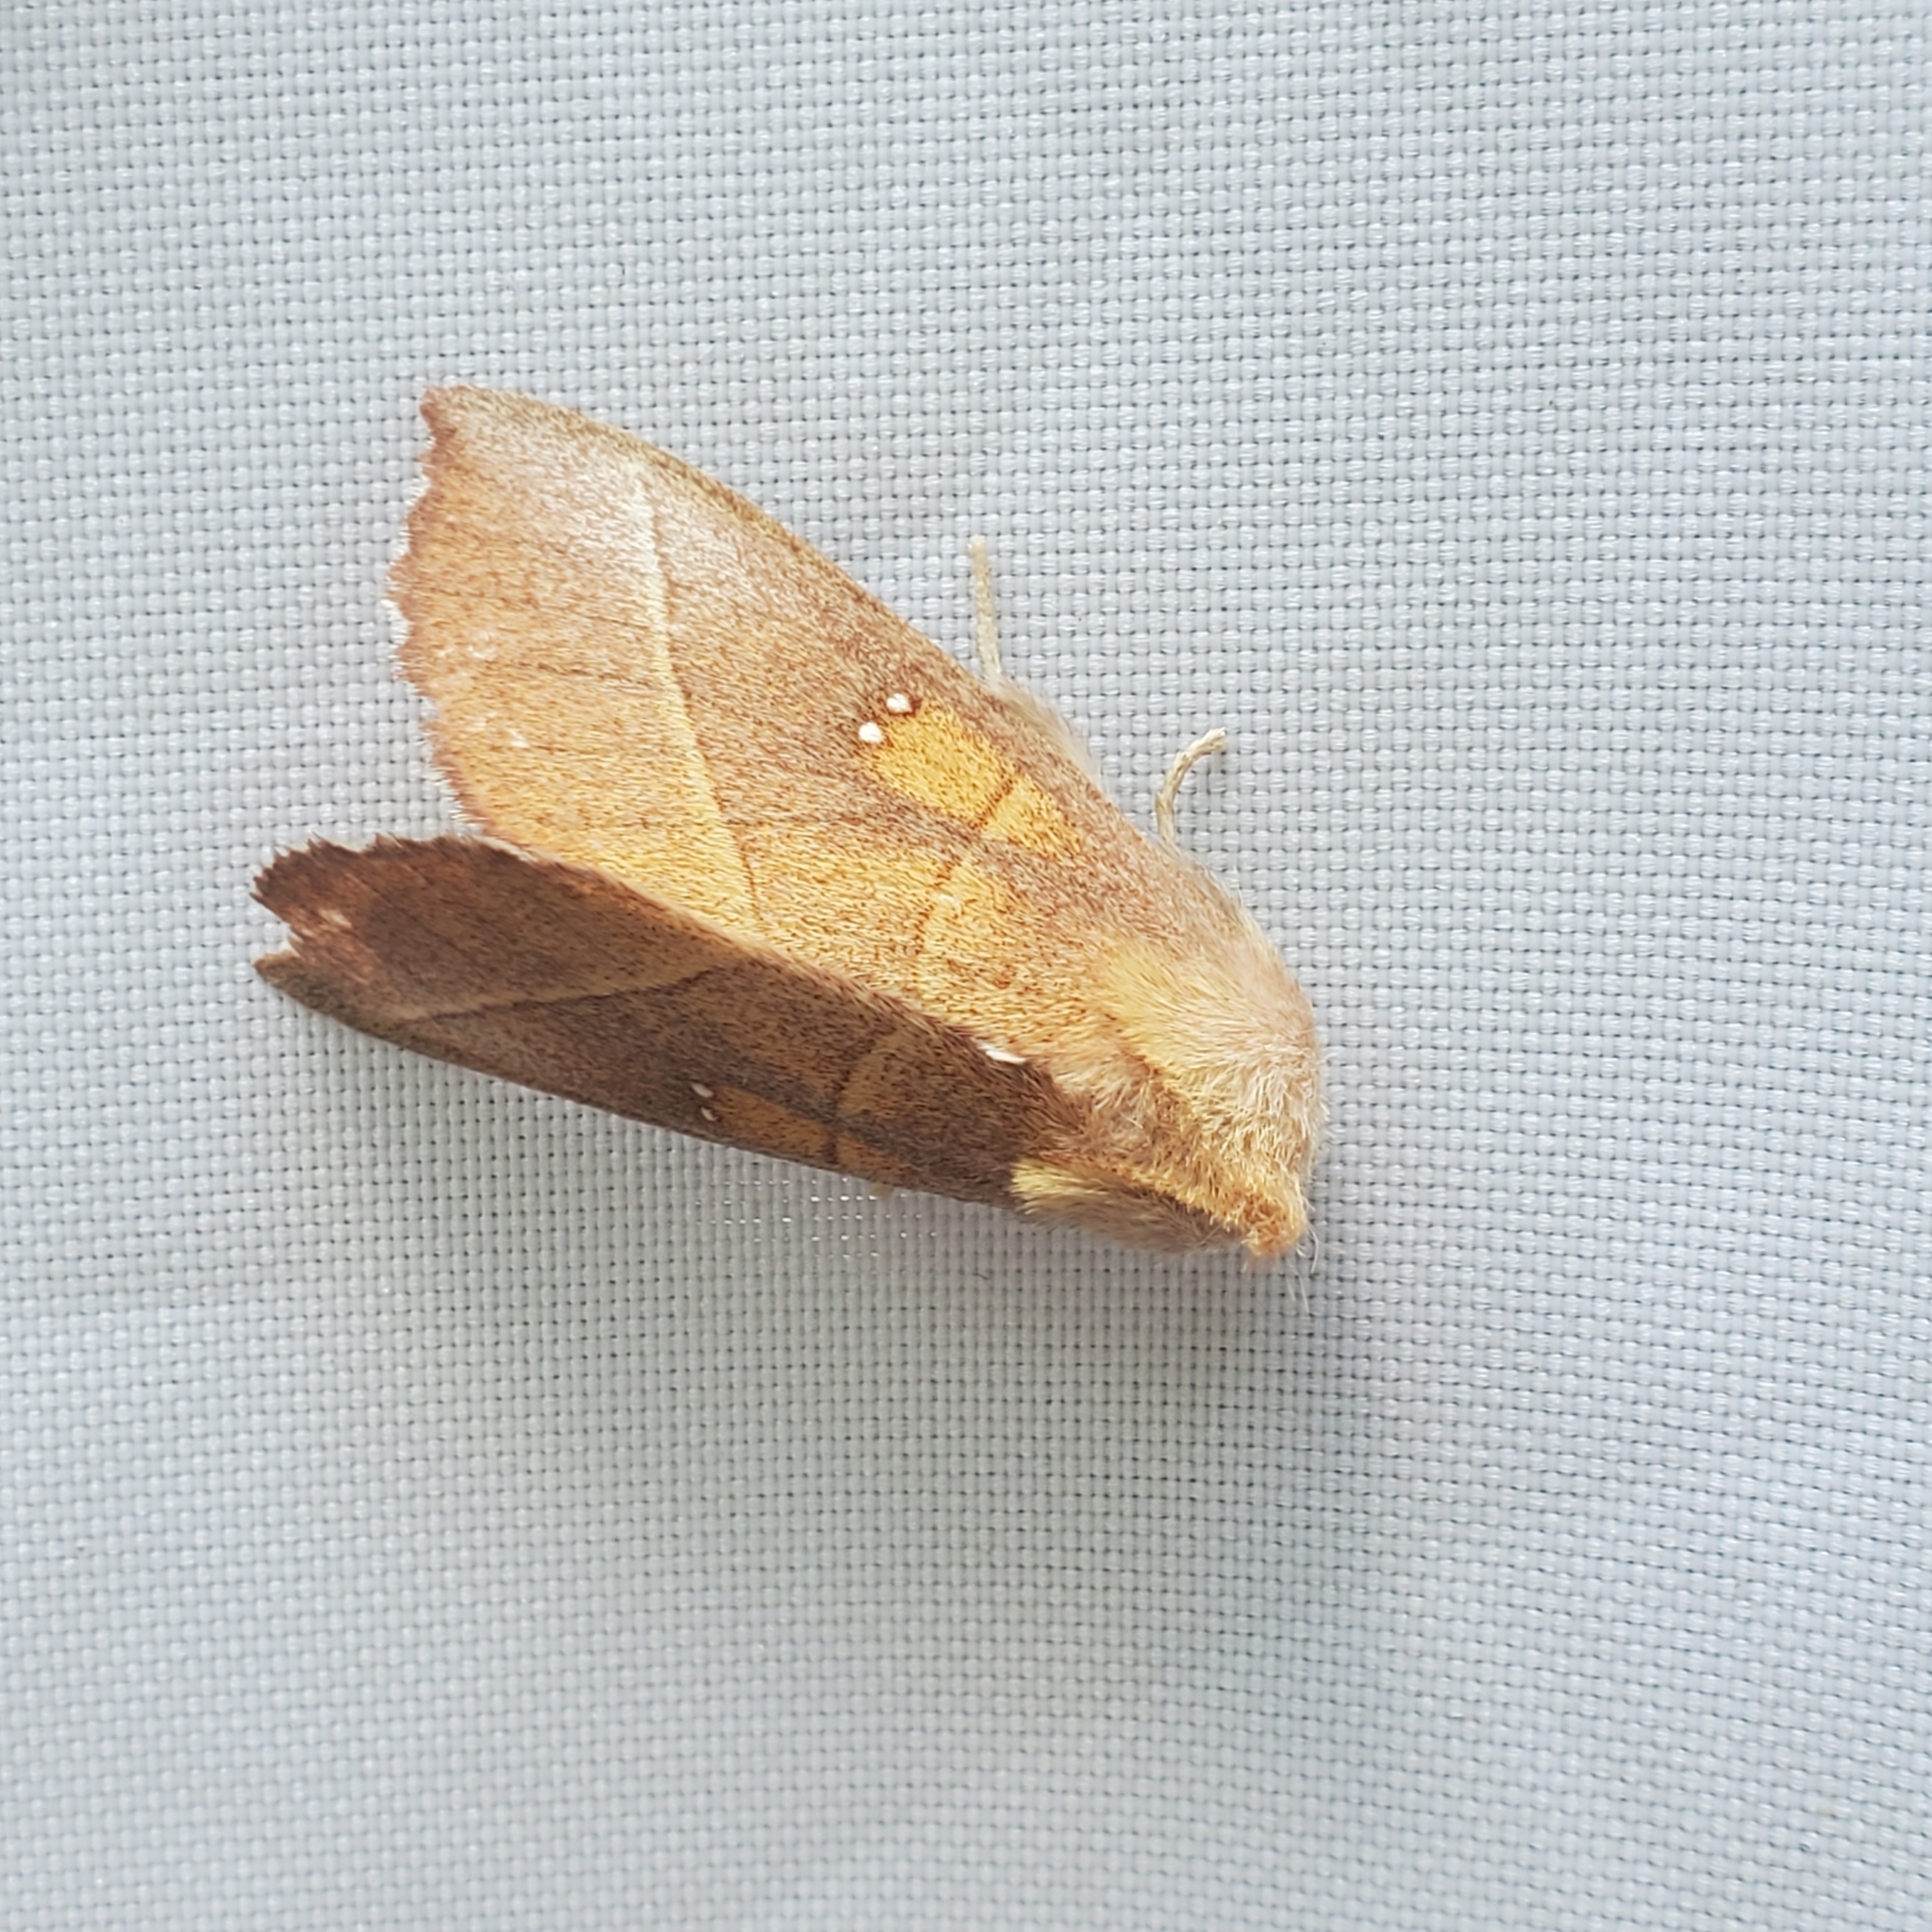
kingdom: Animalia
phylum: Arthropoda
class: Insecta
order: Lepidoptera
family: Notodontidae
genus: Nadata
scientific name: Nadata gibbosa
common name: White-dotted prominent
